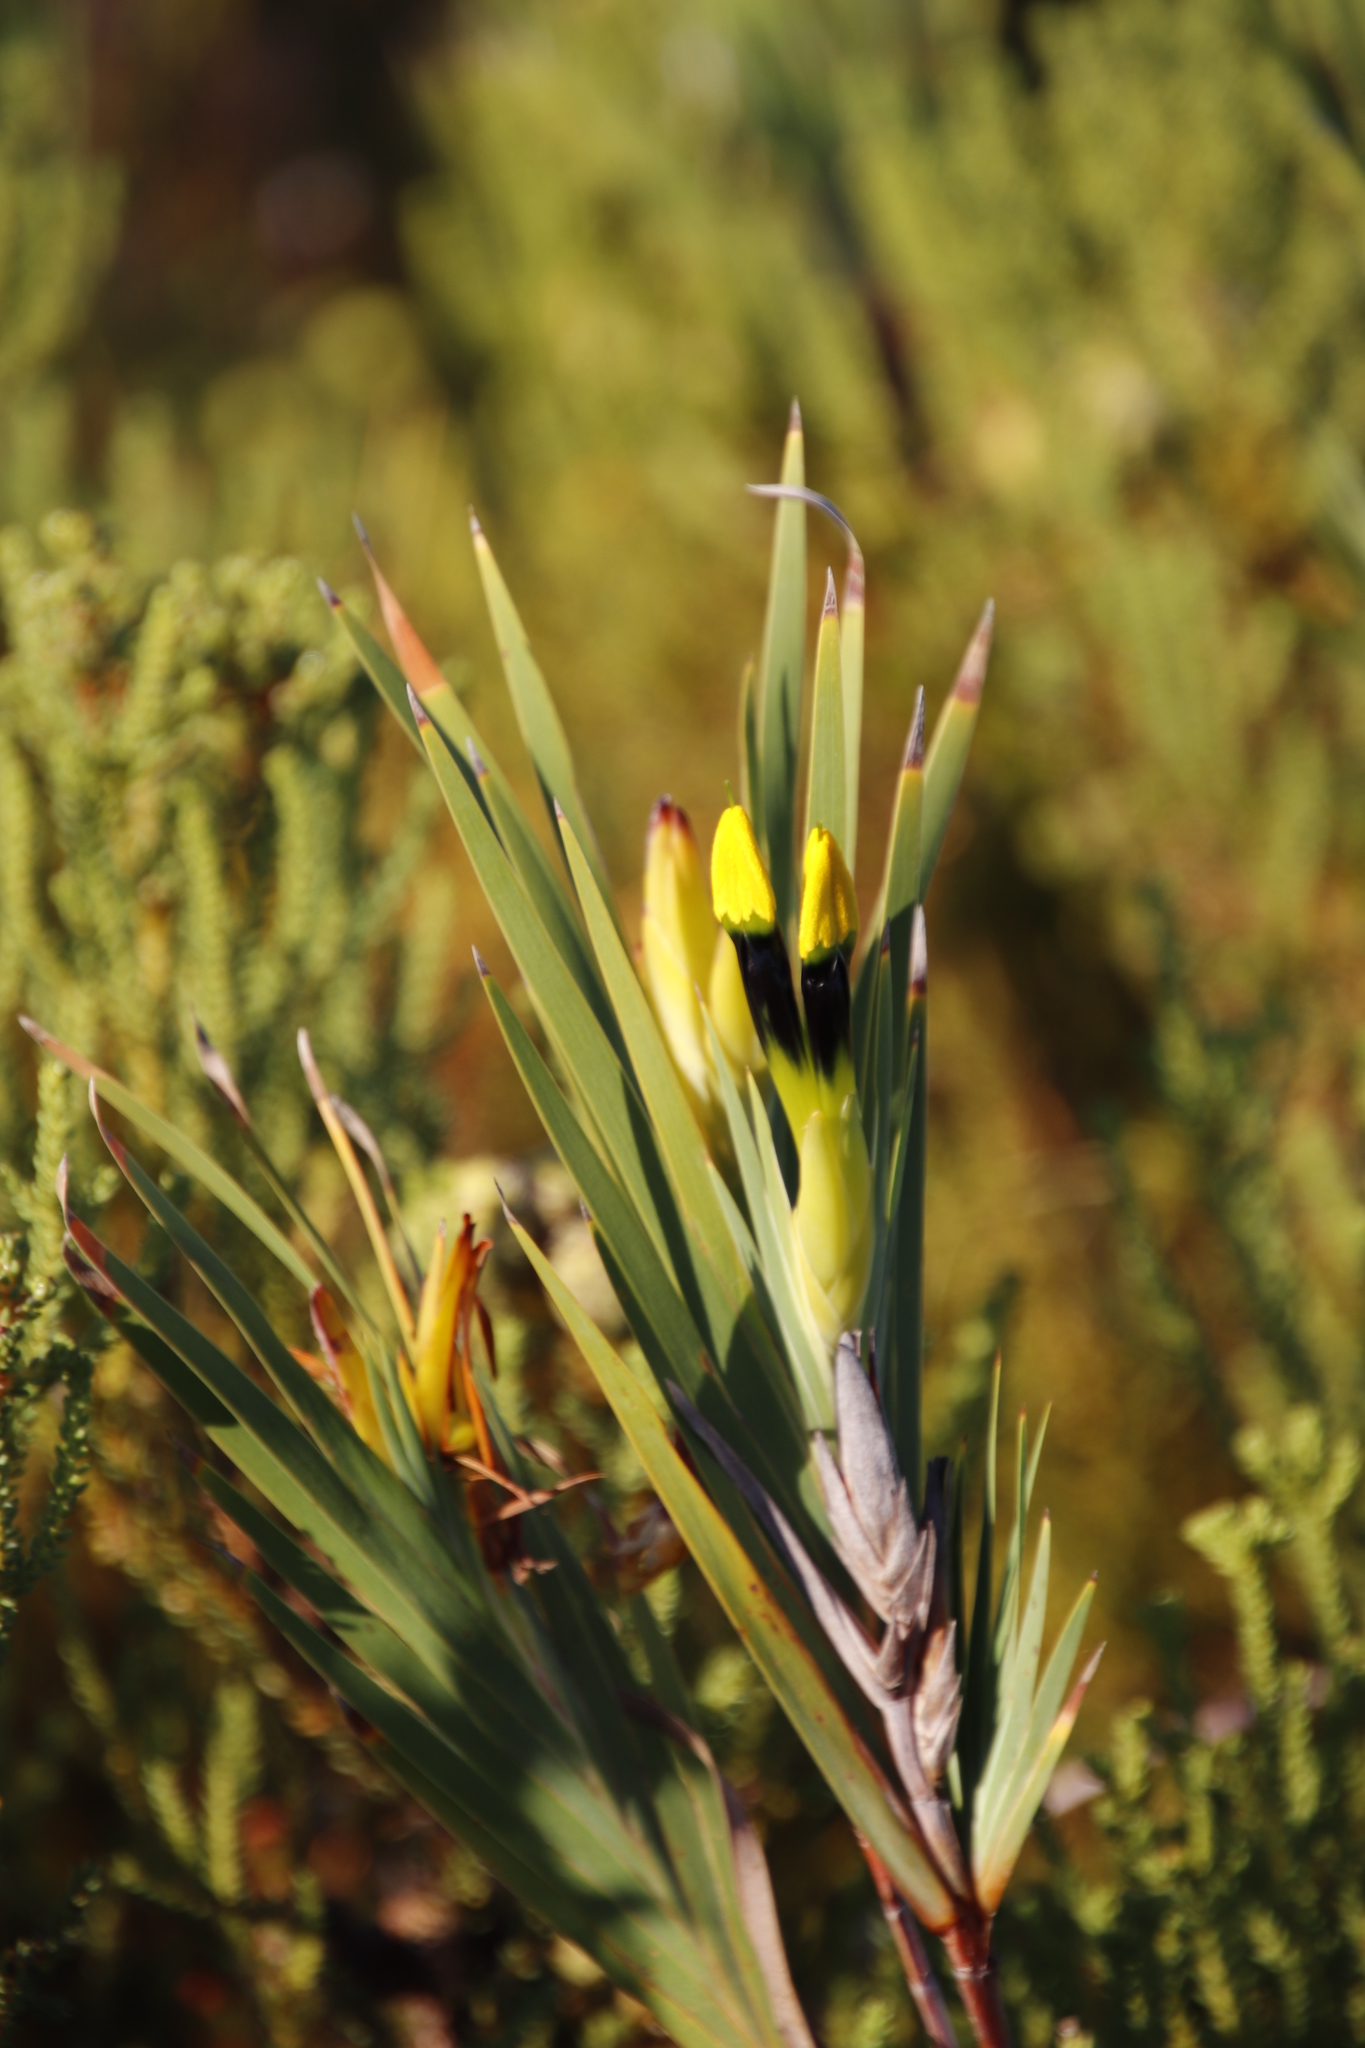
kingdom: Plantae
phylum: Tracheophyta
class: Liliopsida
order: Asparagales
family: Iridaceae
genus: Witsenia
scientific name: Witsenia maura
